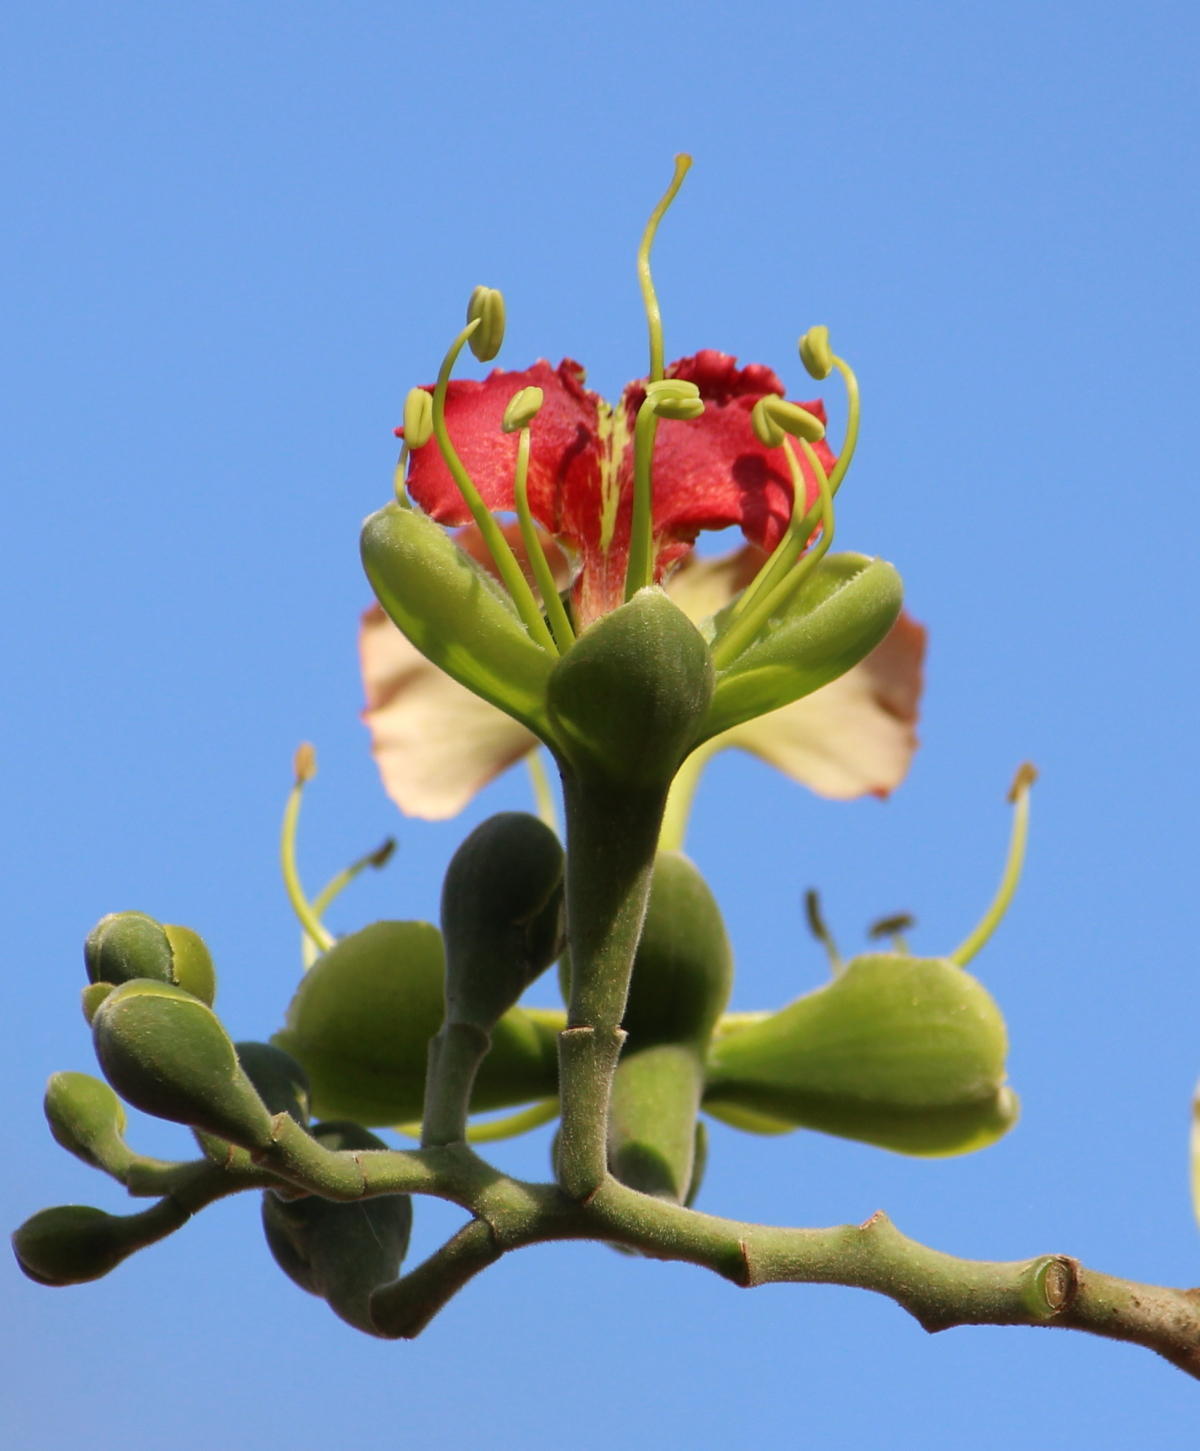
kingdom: Plantae
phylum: Tracheophyta
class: Magnoliopsida
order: Fabales
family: Fabaceae
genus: Afzelia
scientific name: Afzelia quanzensis
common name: Pod mahogany
